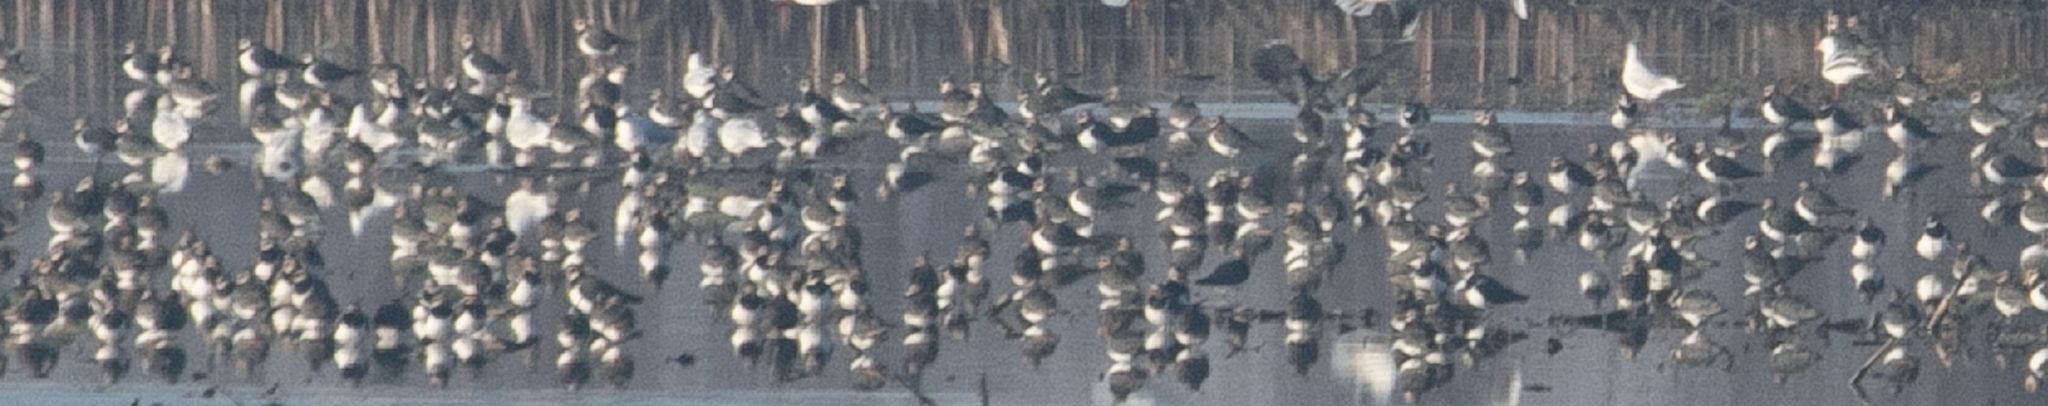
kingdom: Animalia
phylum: Chordata
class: Aves
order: Charadriiformes
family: Charadriidae
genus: Vanellus
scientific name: Vanellus vanellus
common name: Northern lapwing
